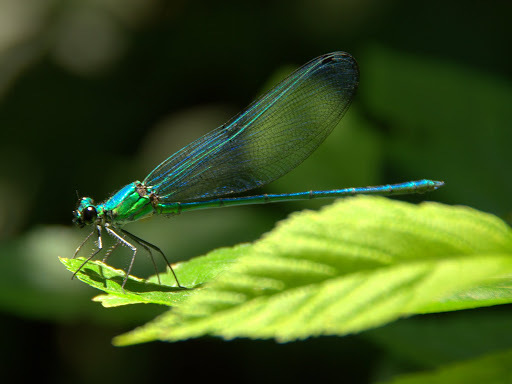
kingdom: Animalia
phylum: Arthropoda
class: Insecta
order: Odonata
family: Calopterygidae
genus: Umma
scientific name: Umma saphirina
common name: Sapphire sparklewing
